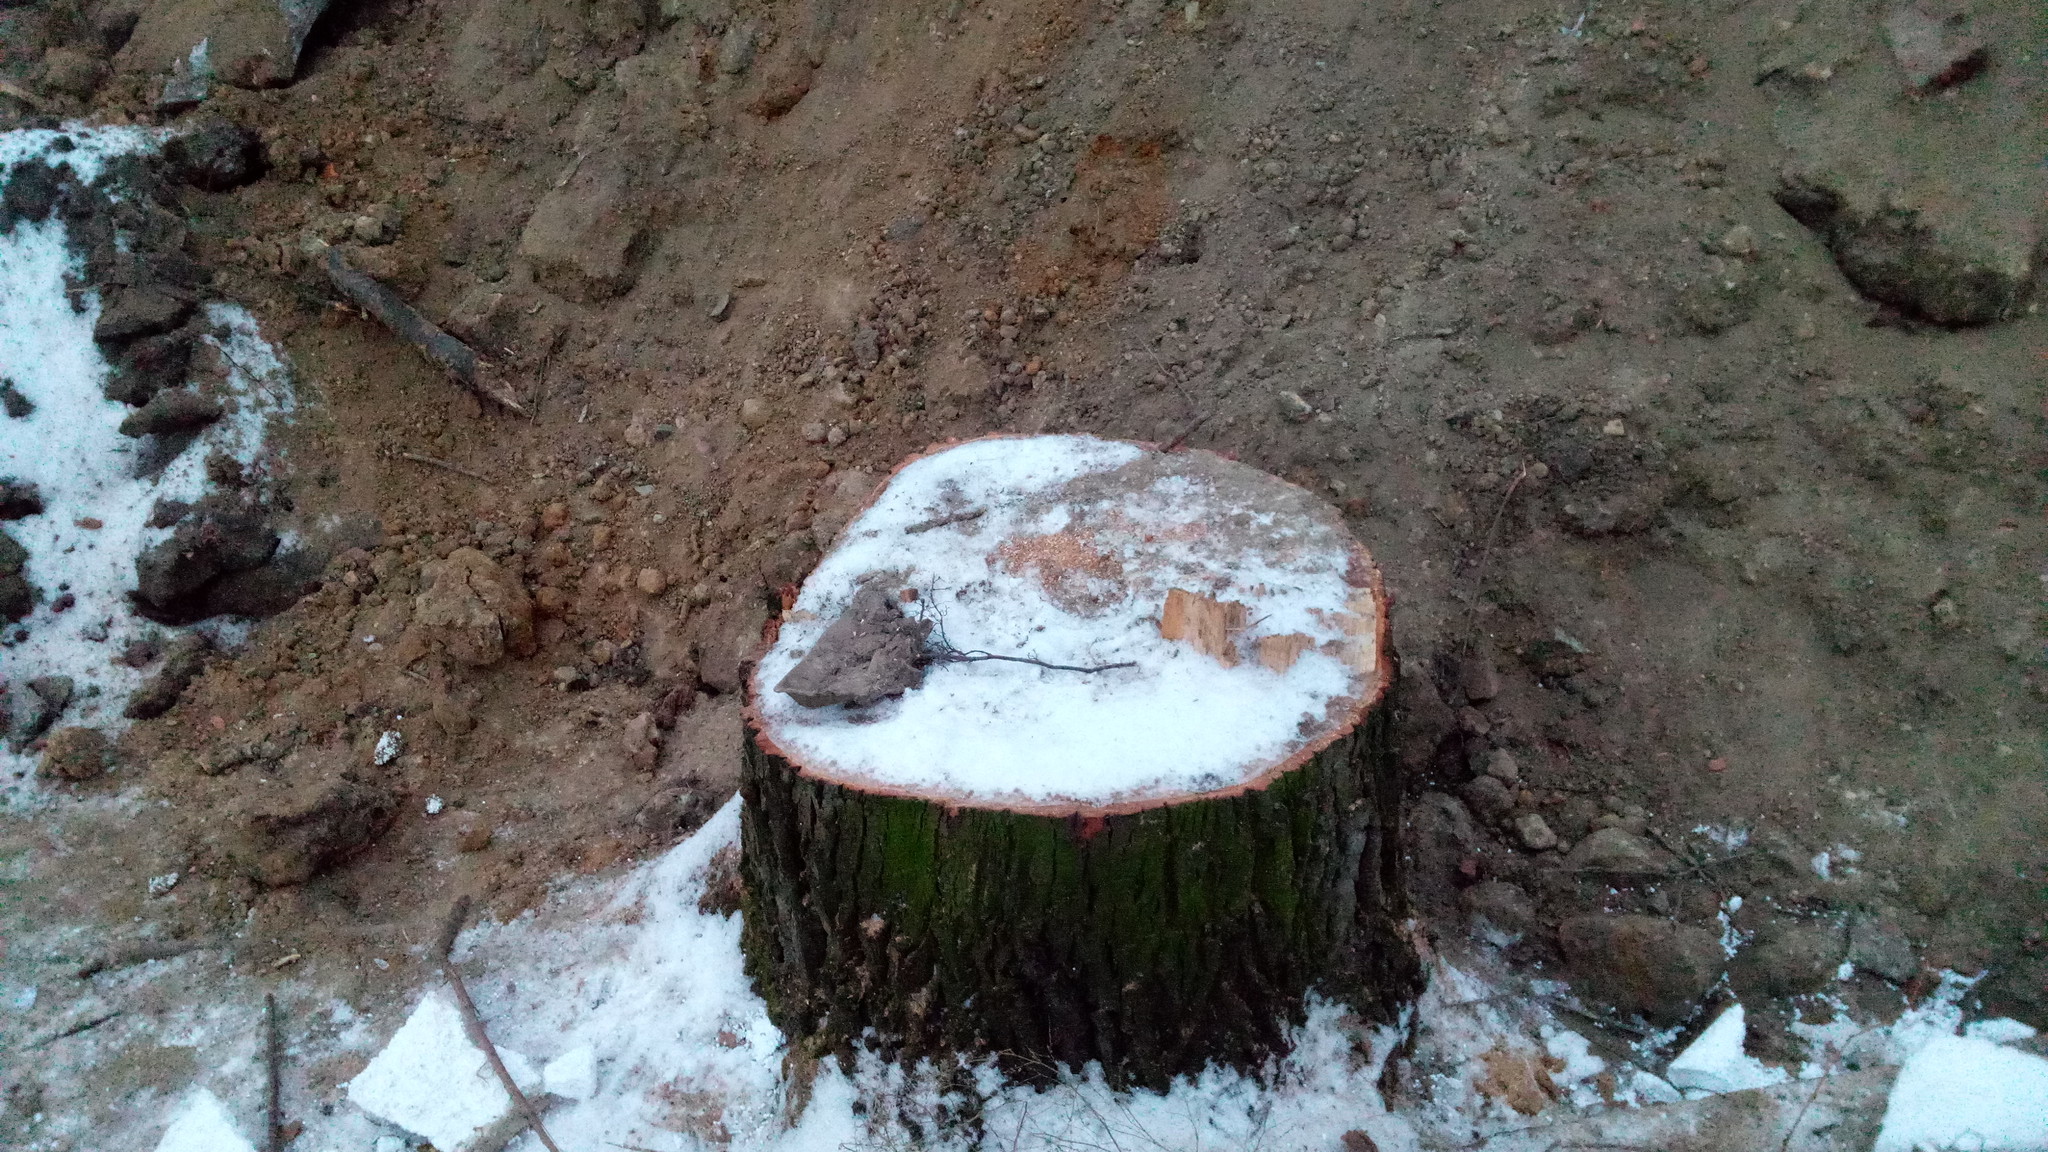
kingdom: Plantae
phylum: Tracheophyta
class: Magnoliopsida
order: Fagales
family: Fagaceae
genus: Quercus
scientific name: Quercus robur
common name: Pedunculate oak
